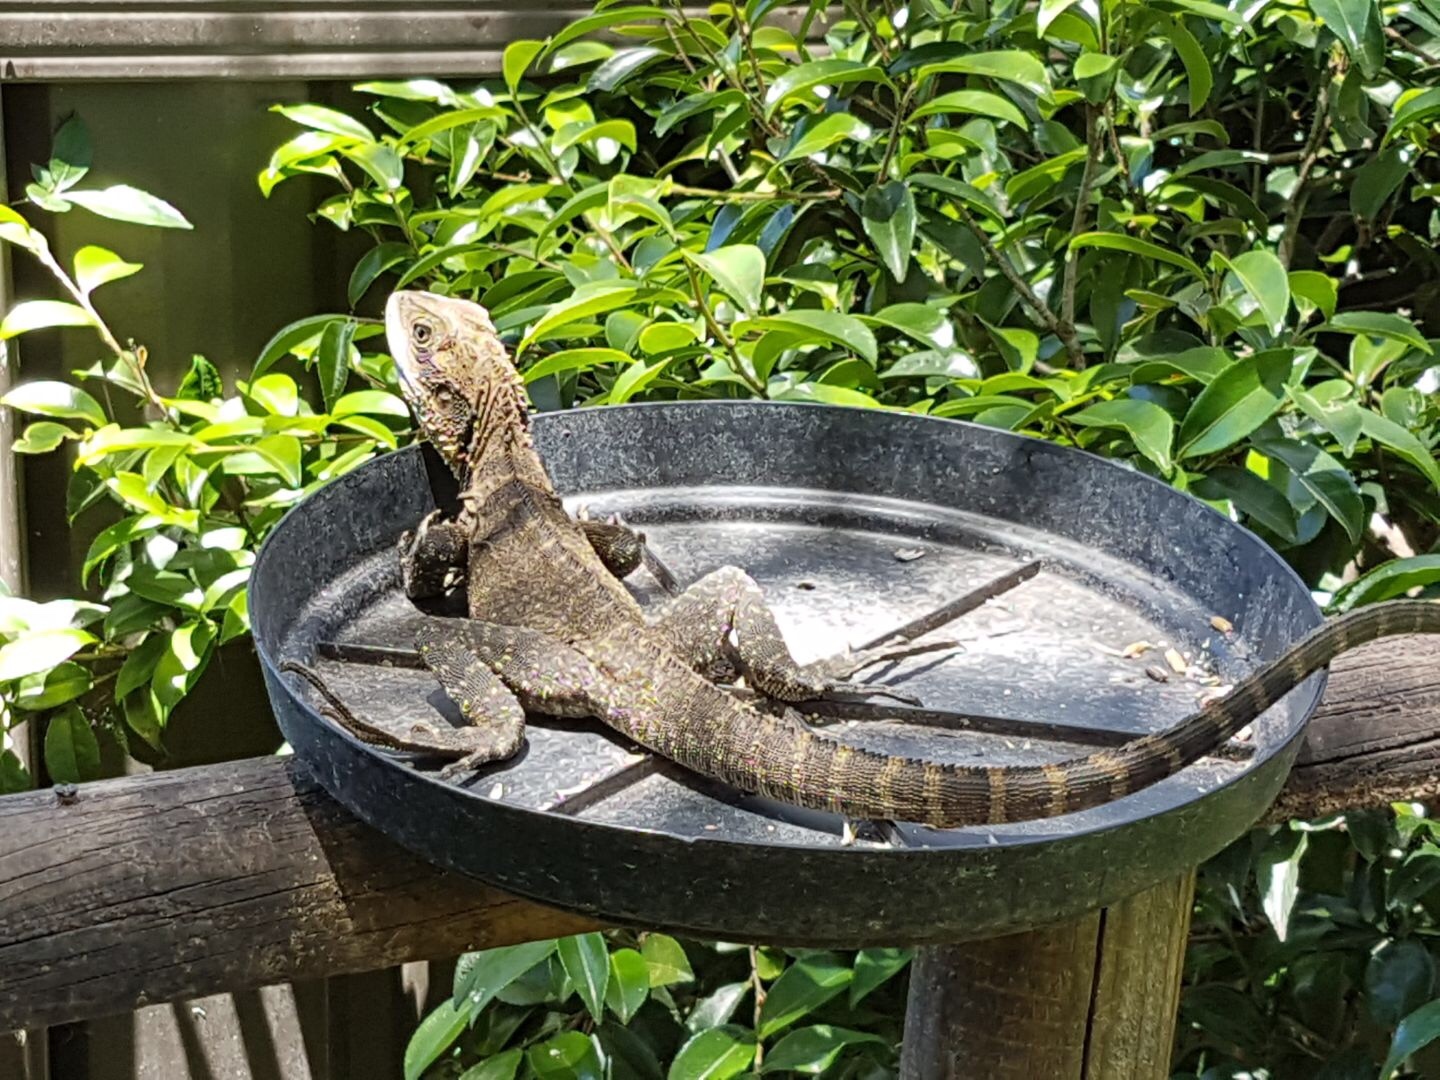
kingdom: Animalia
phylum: Chordata
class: Squamata
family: Agamidae
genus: Intellagama
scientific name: Intellagama lesueurii
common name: Eastern water dragon
